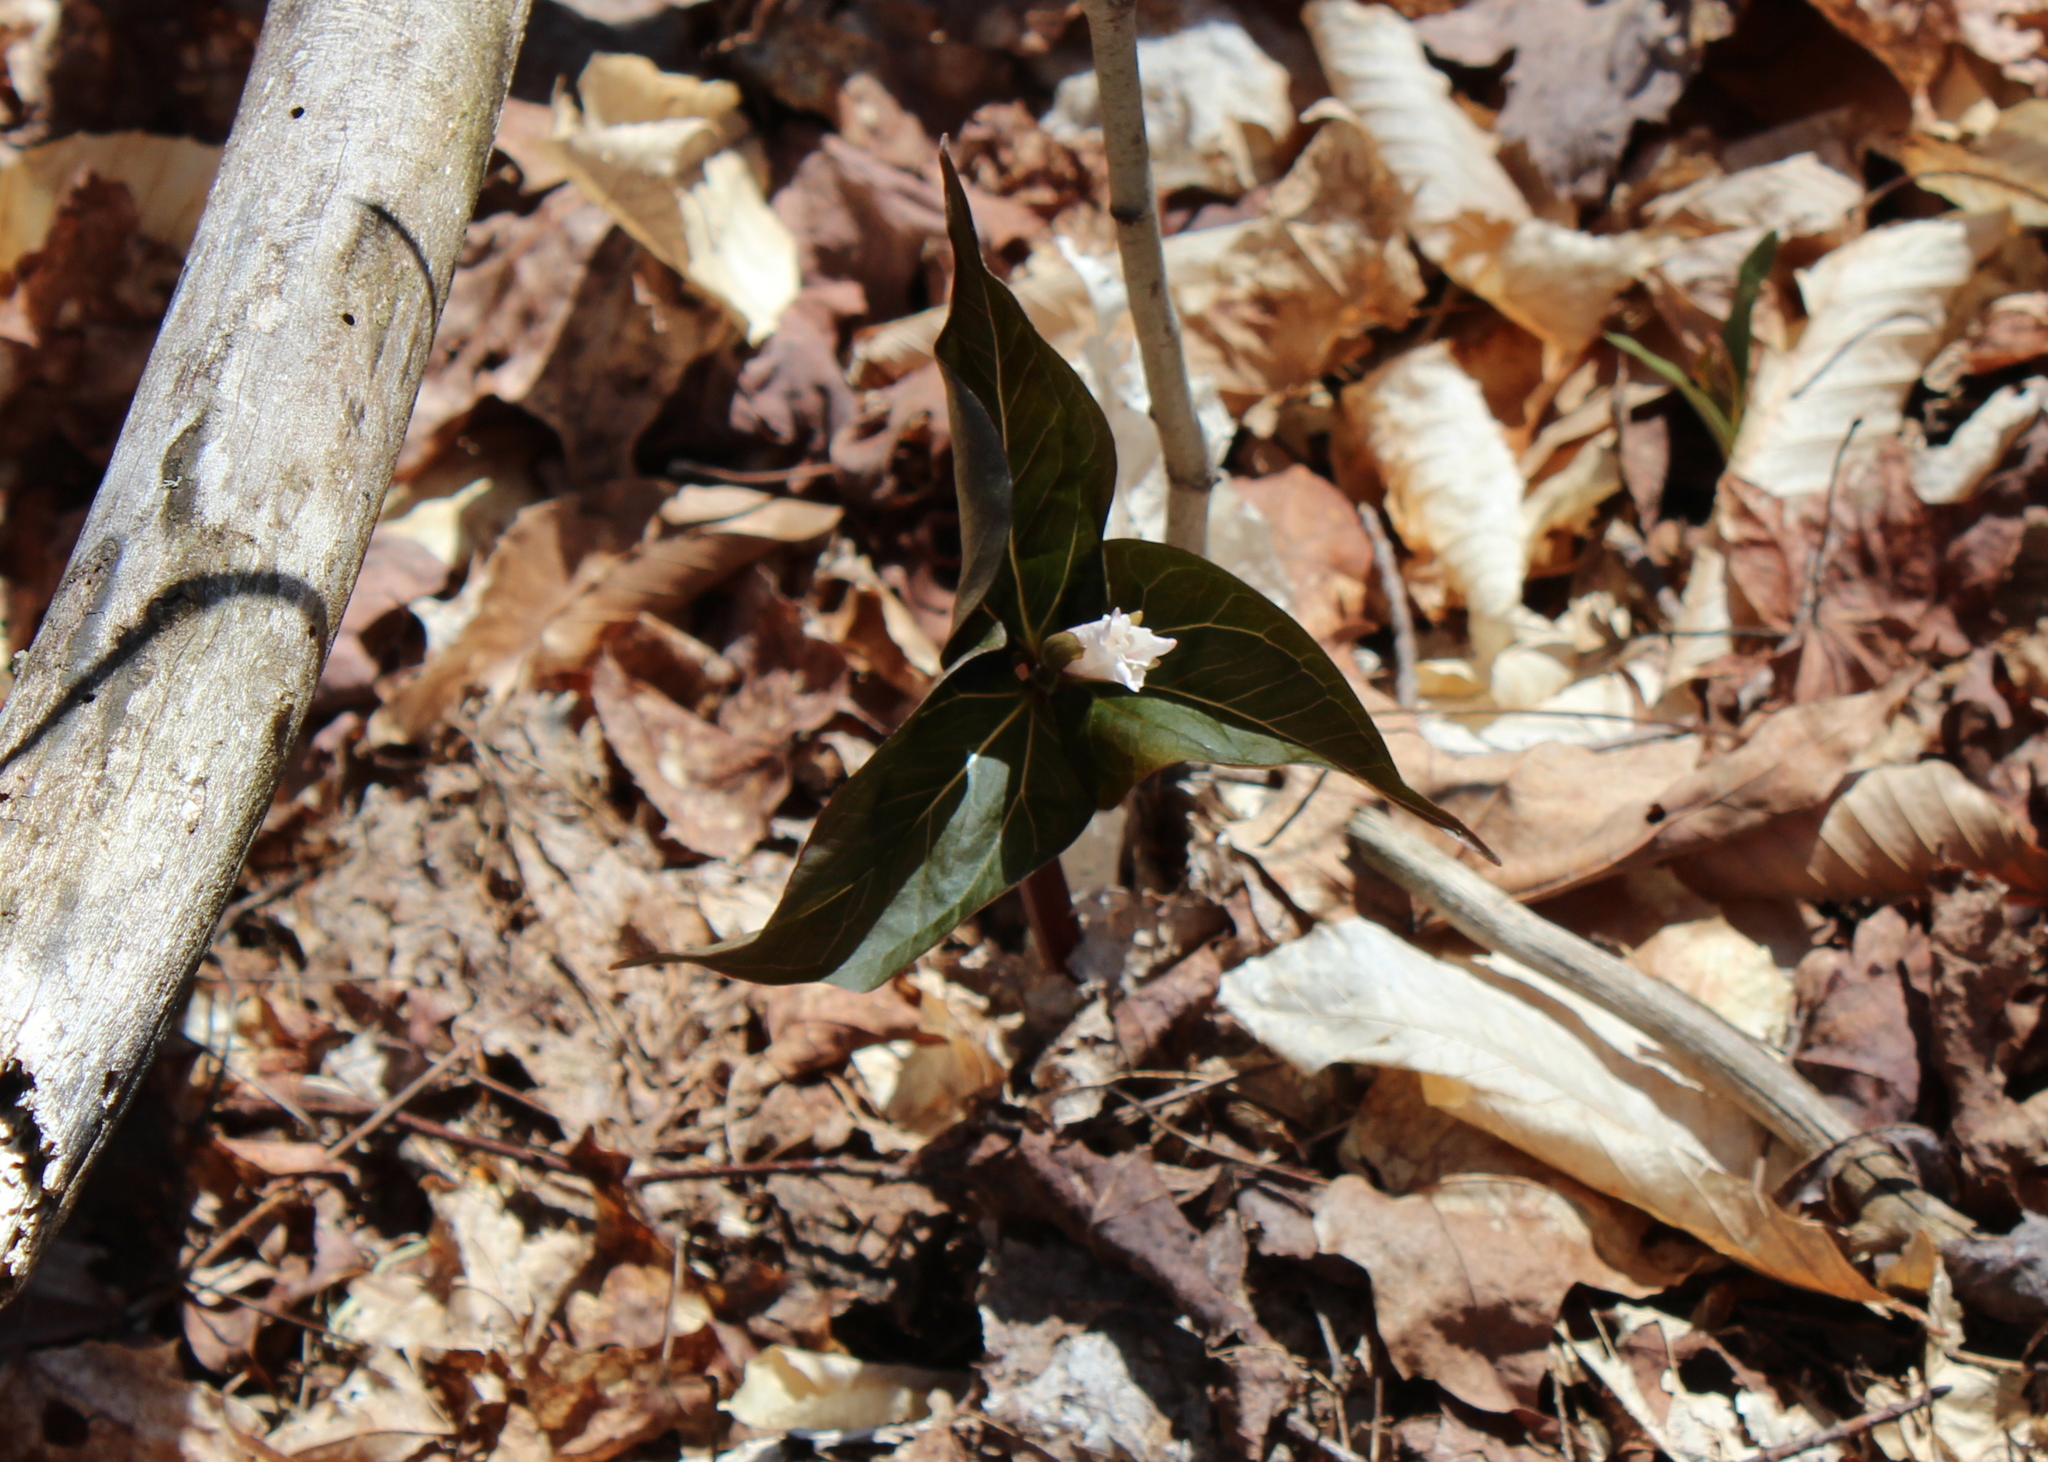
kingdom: Plantae
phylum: Tracheophyta
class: Liliopsida
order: Liliales
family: Melanthiaceae
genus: Trillium
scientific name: Trillium undulatum
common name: Paint trillium
